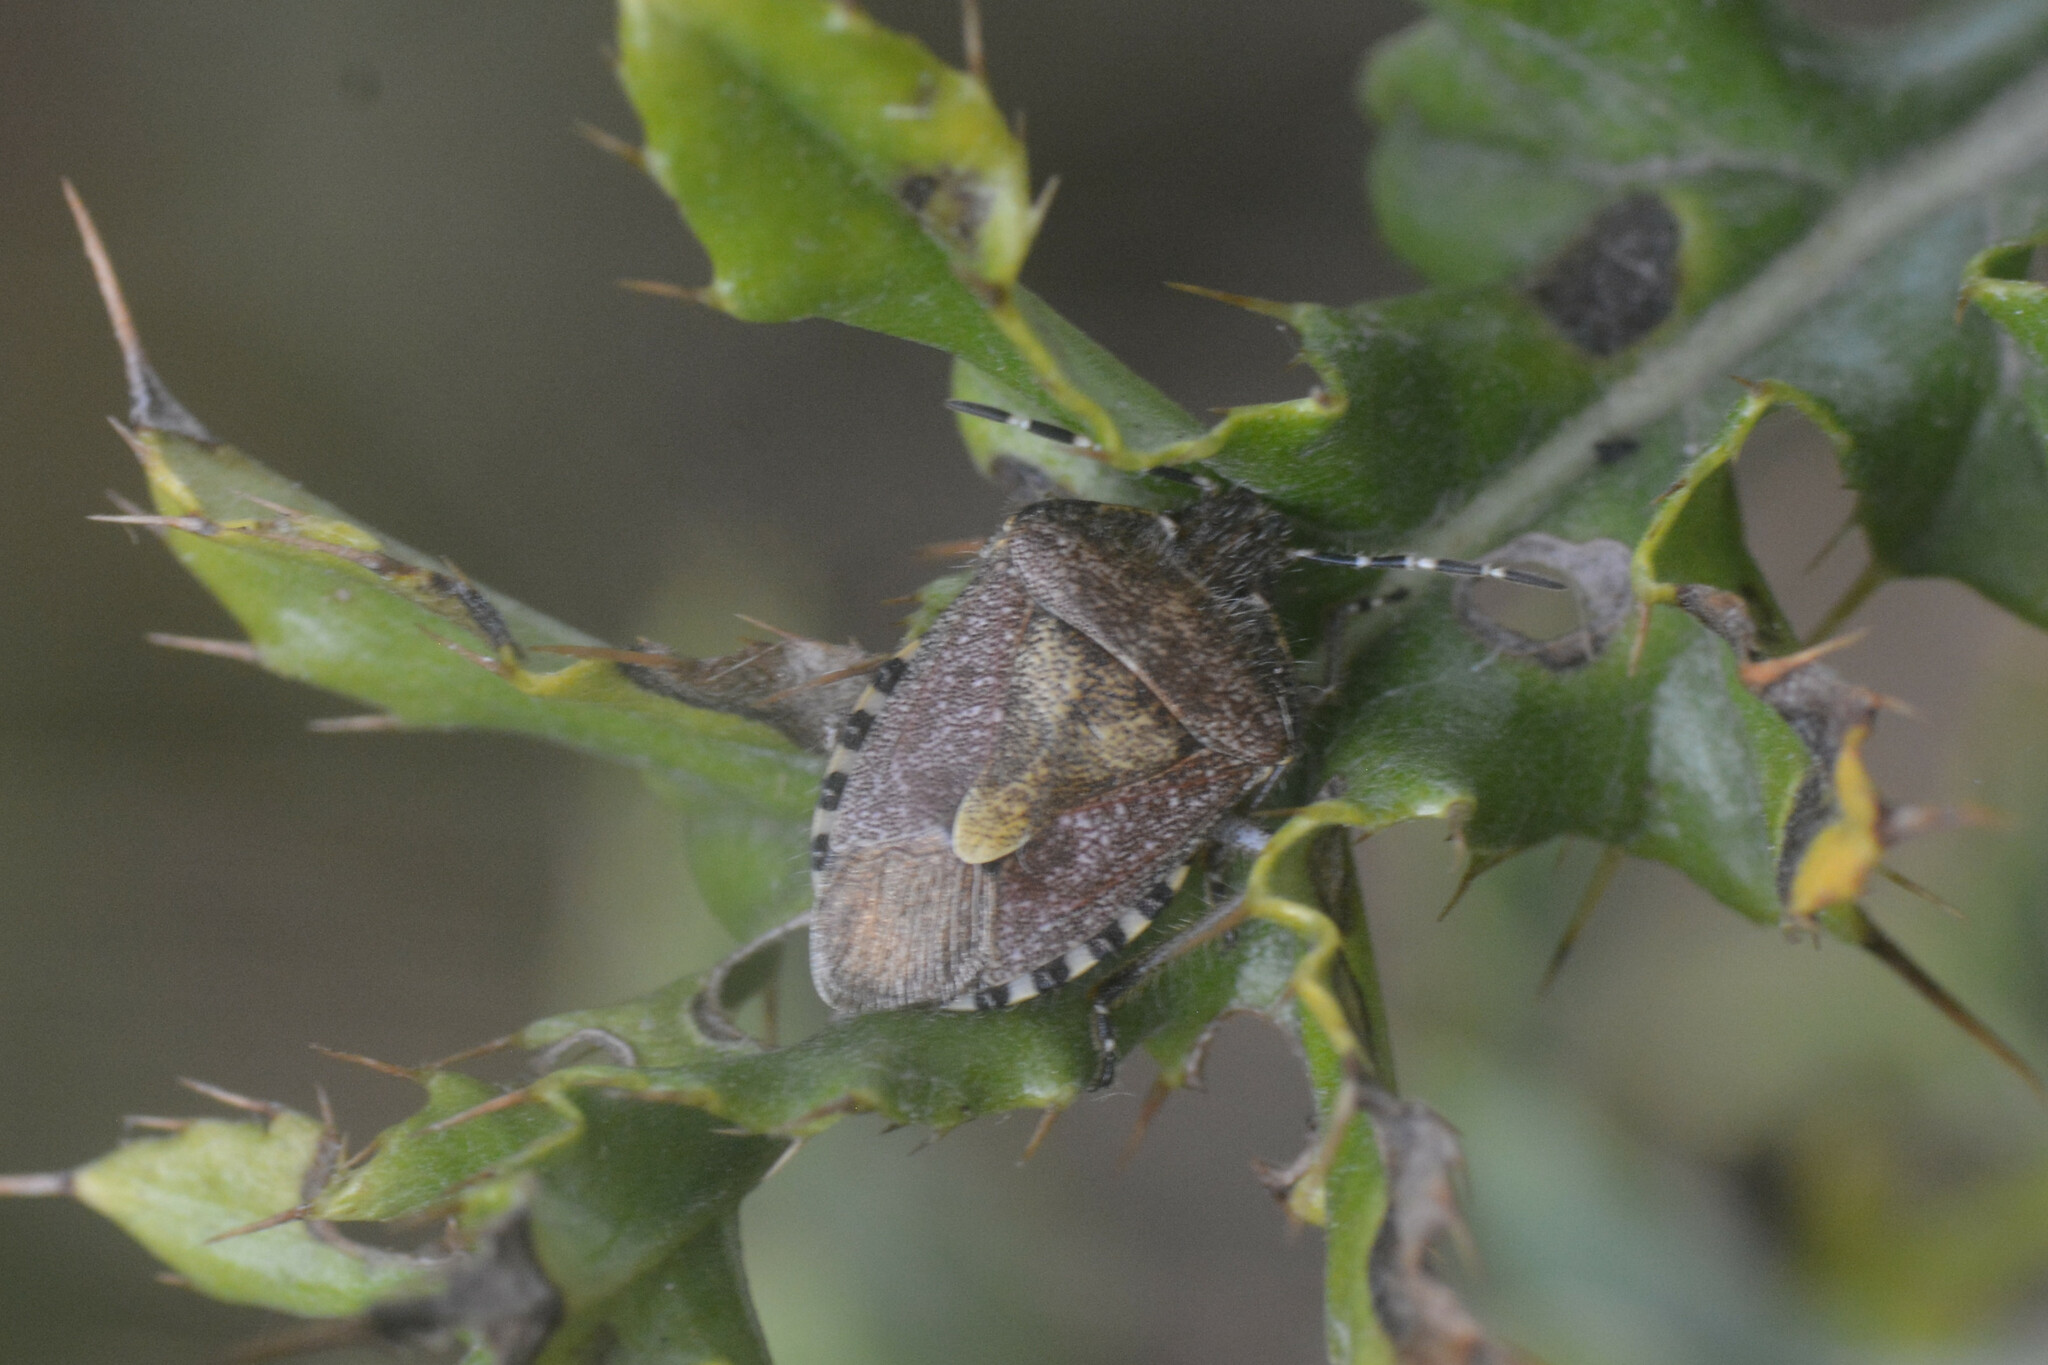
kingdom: Animalia
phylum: Arthropoda
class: Insecta
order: Hemiptera
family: Pentatomidae
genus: Dolycoris
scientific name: Dolycoris baccarum
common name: Sloe bug
